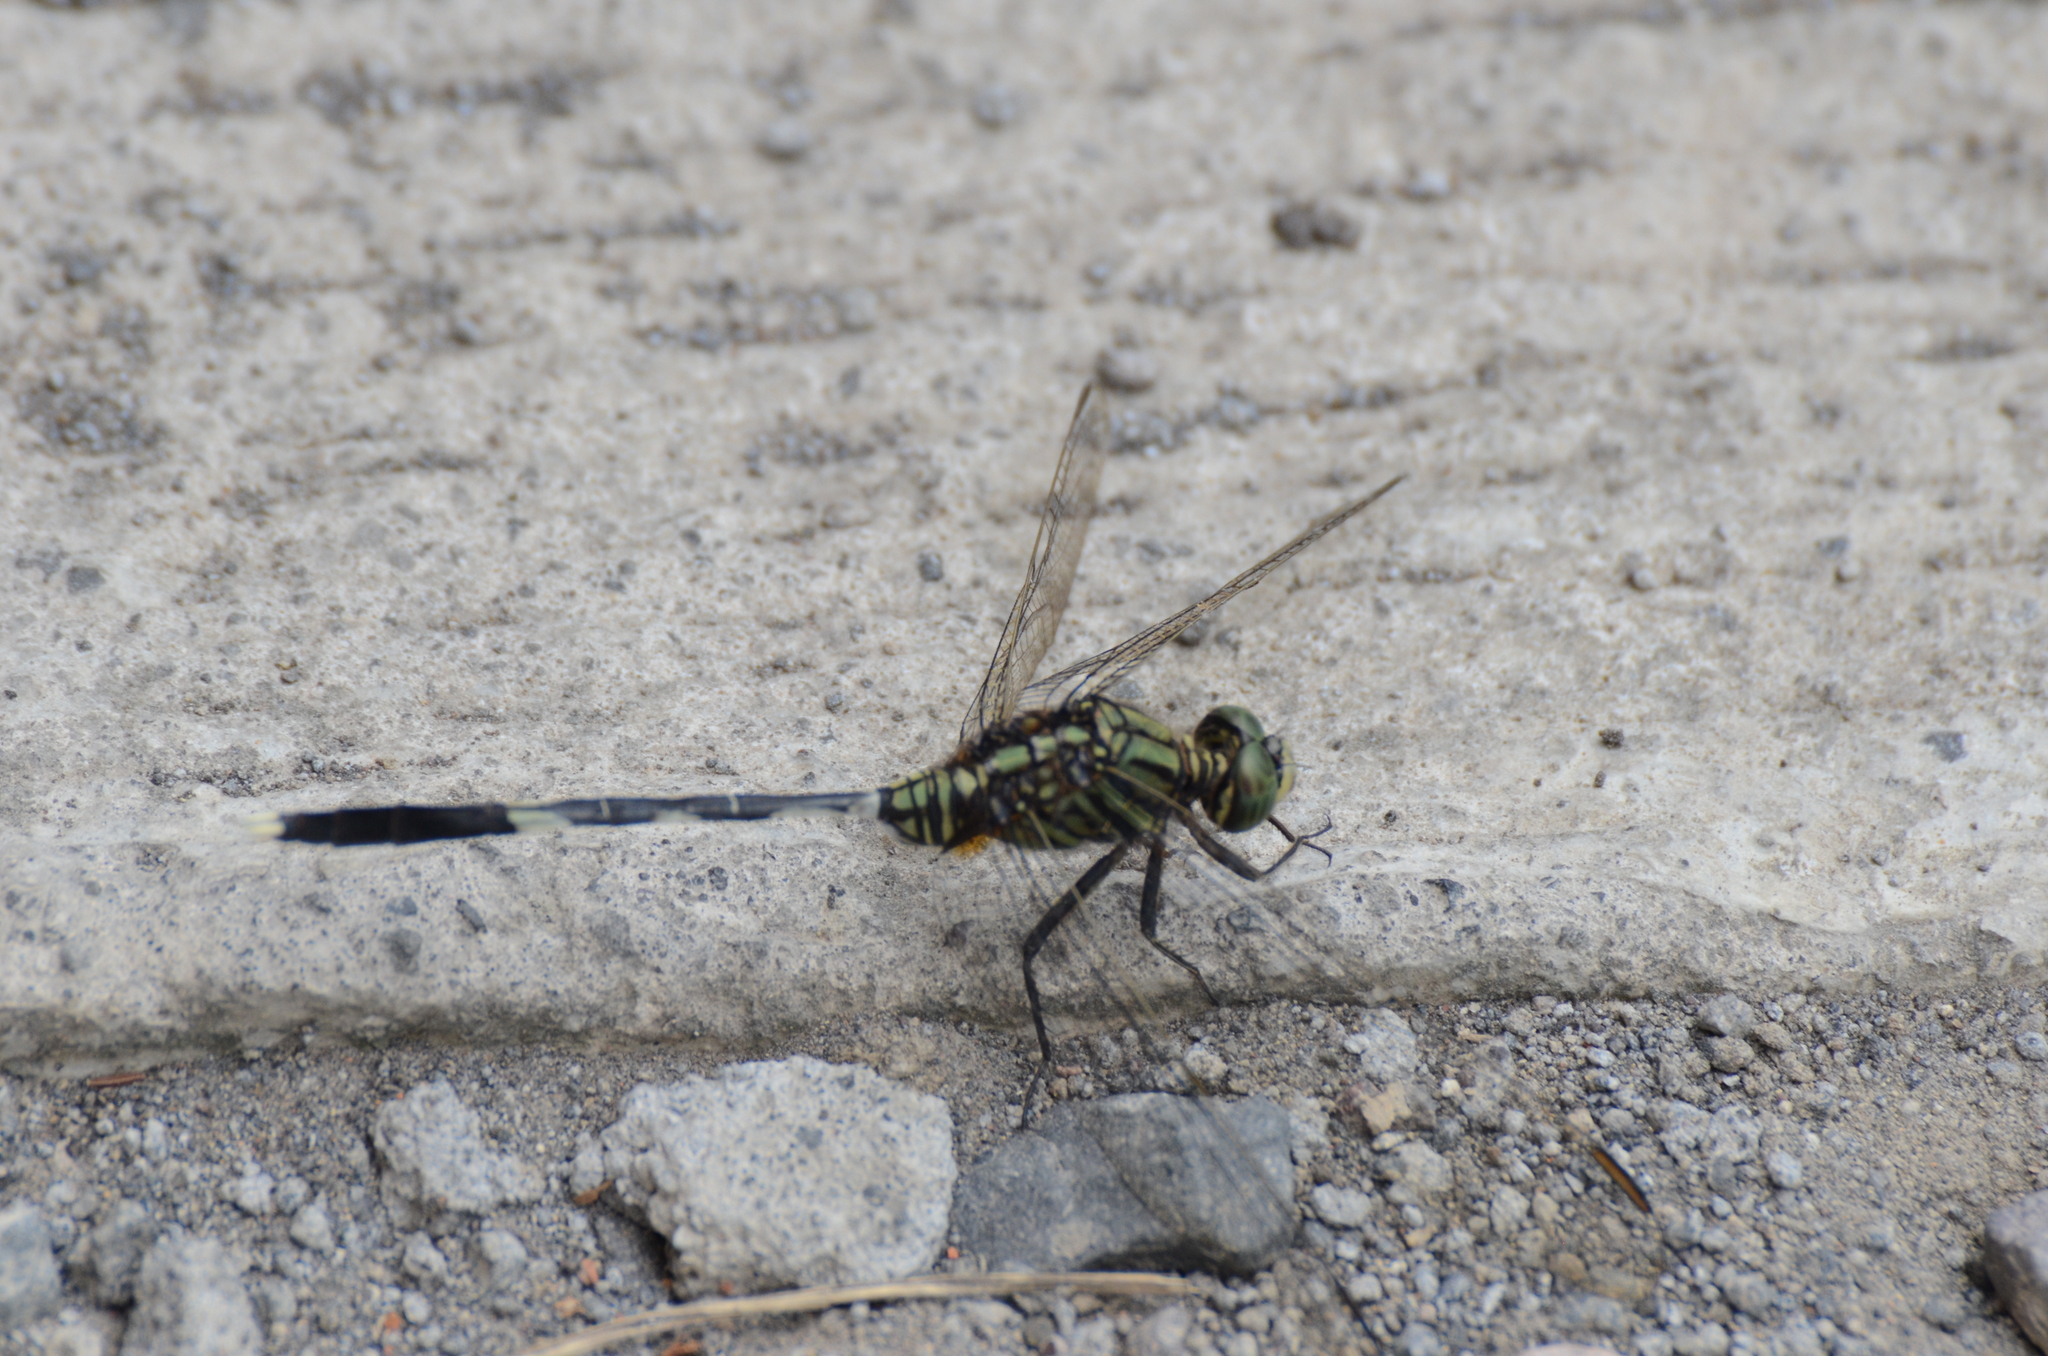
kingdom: Animalia
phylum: Arthropoda
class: Insecta
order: Odonata
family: Libellulidae
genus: Orthetrum
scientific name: Orthetrum sabina
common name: Slender skimmer
